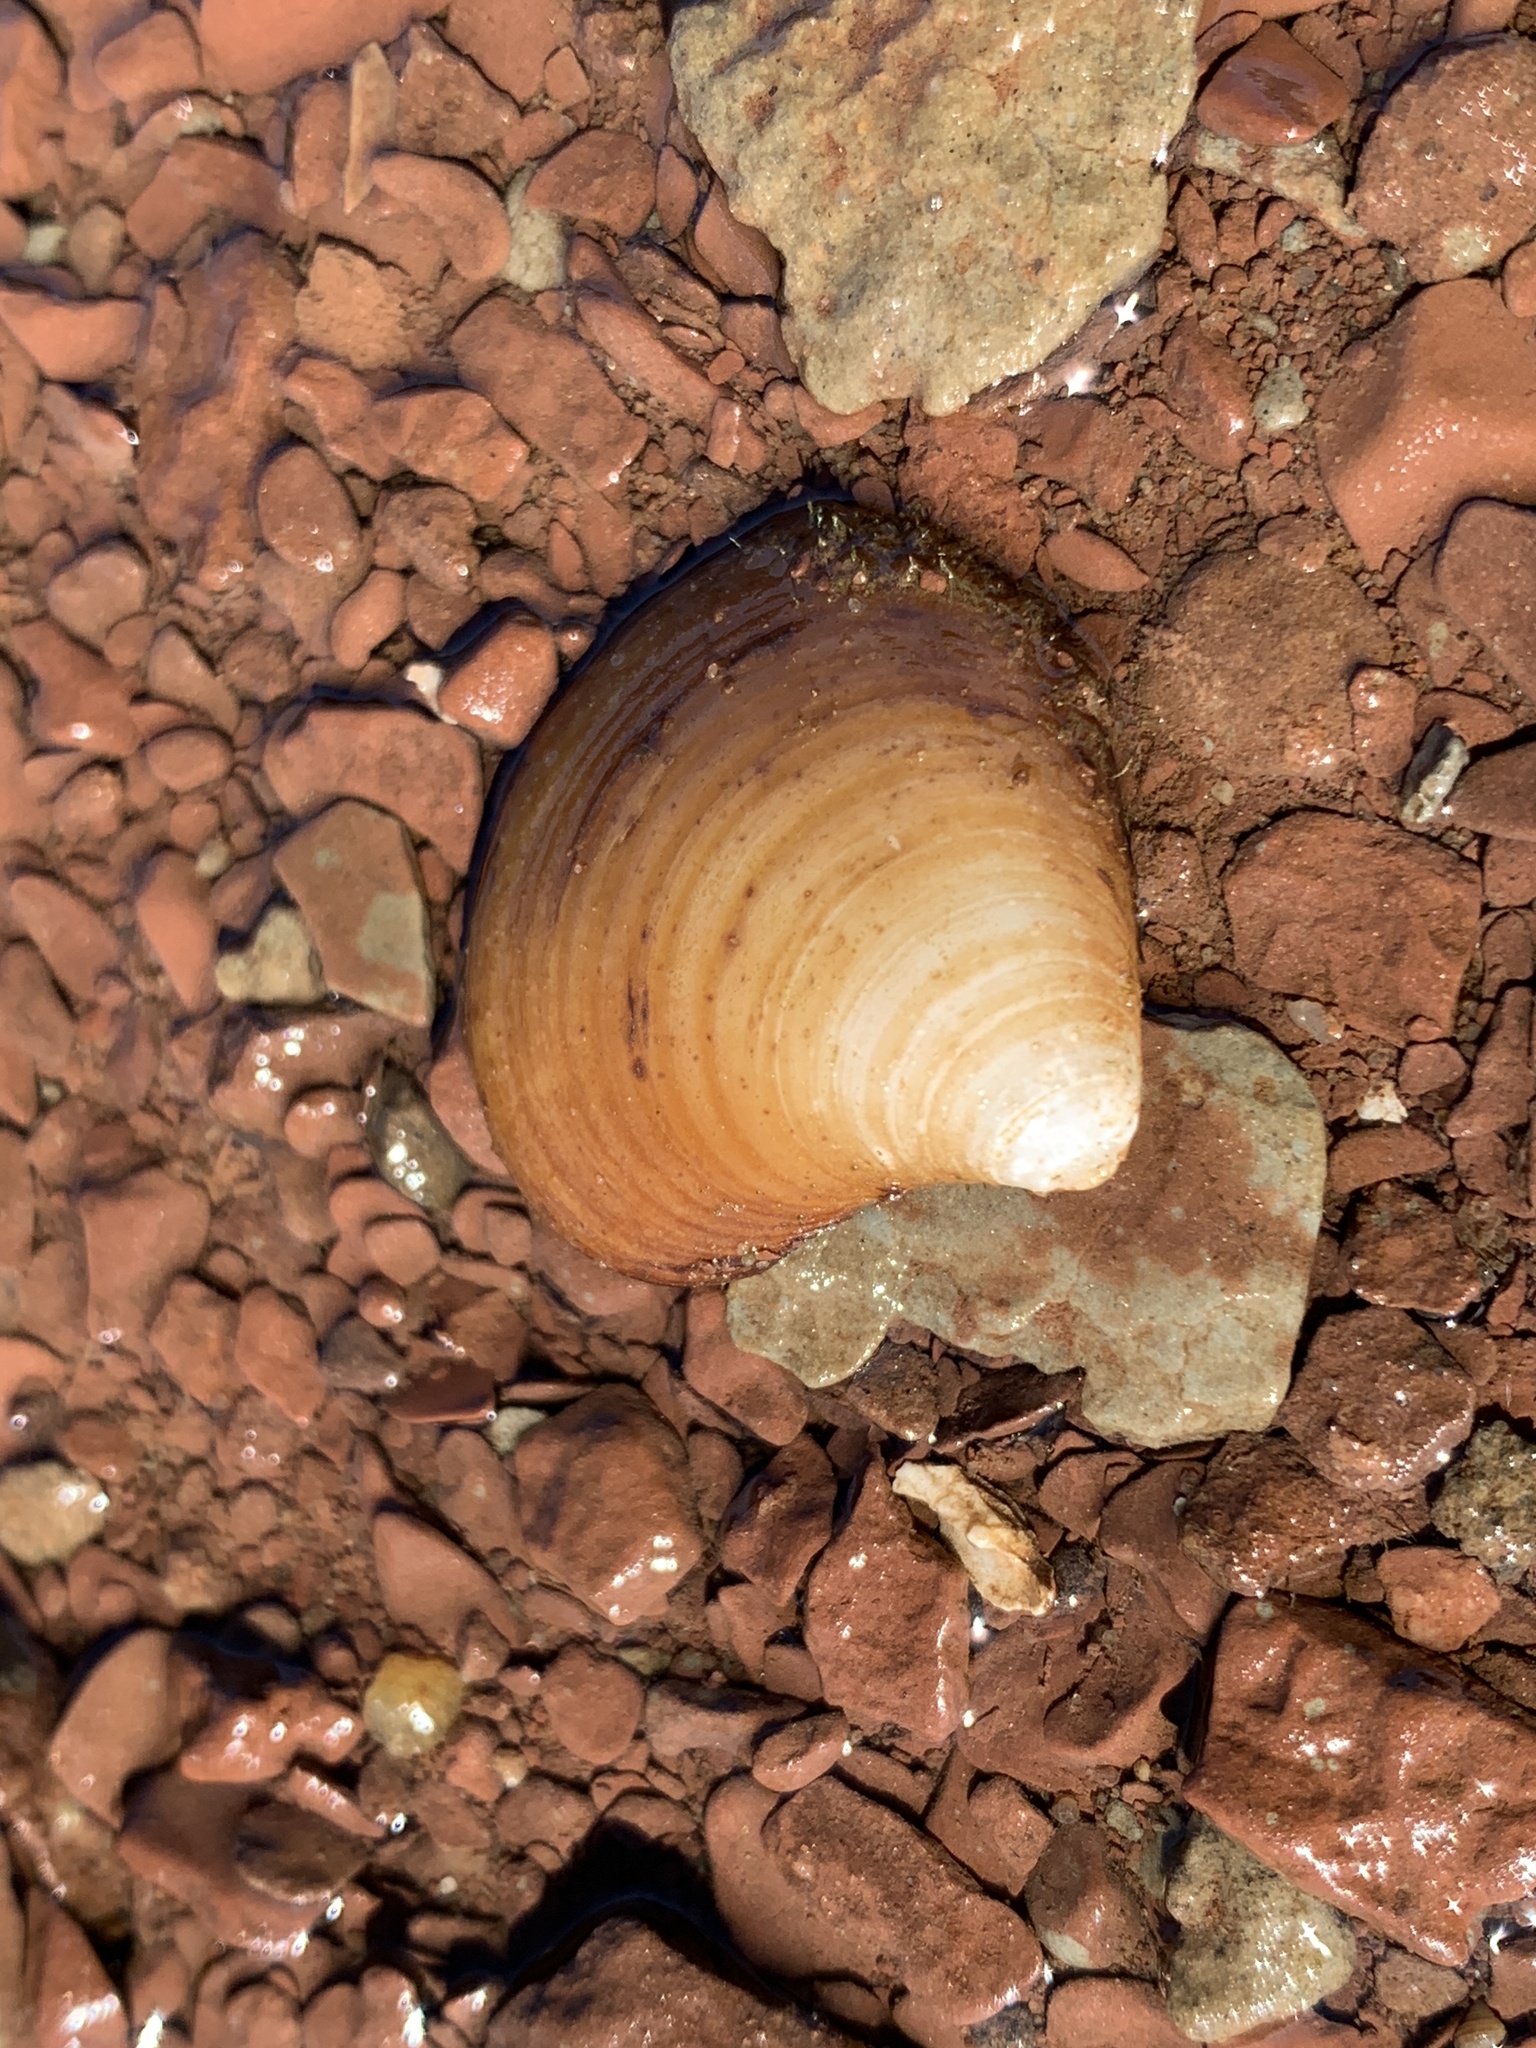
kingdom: Animalia
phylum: Mollusca
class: Bivalvia
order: Cardiida
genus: Isocrassina
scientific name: Isocrassina
